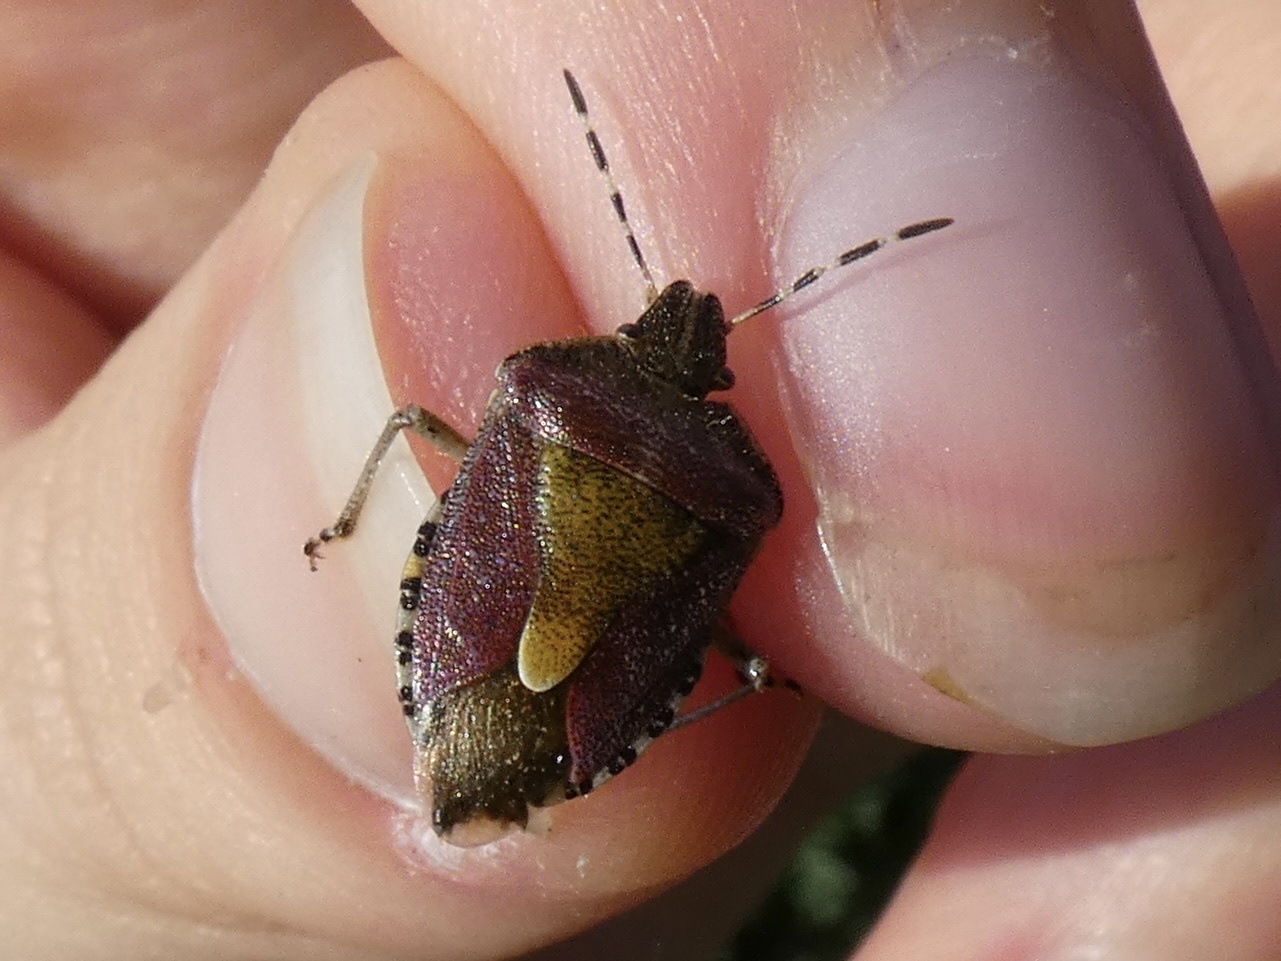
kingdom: Animalia
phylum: Arthropoda
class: Insecta
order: Hemiptera
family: Pentatomidae
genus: Dolycoris
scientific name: Dolycoris baccarum
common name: Sloe bug
